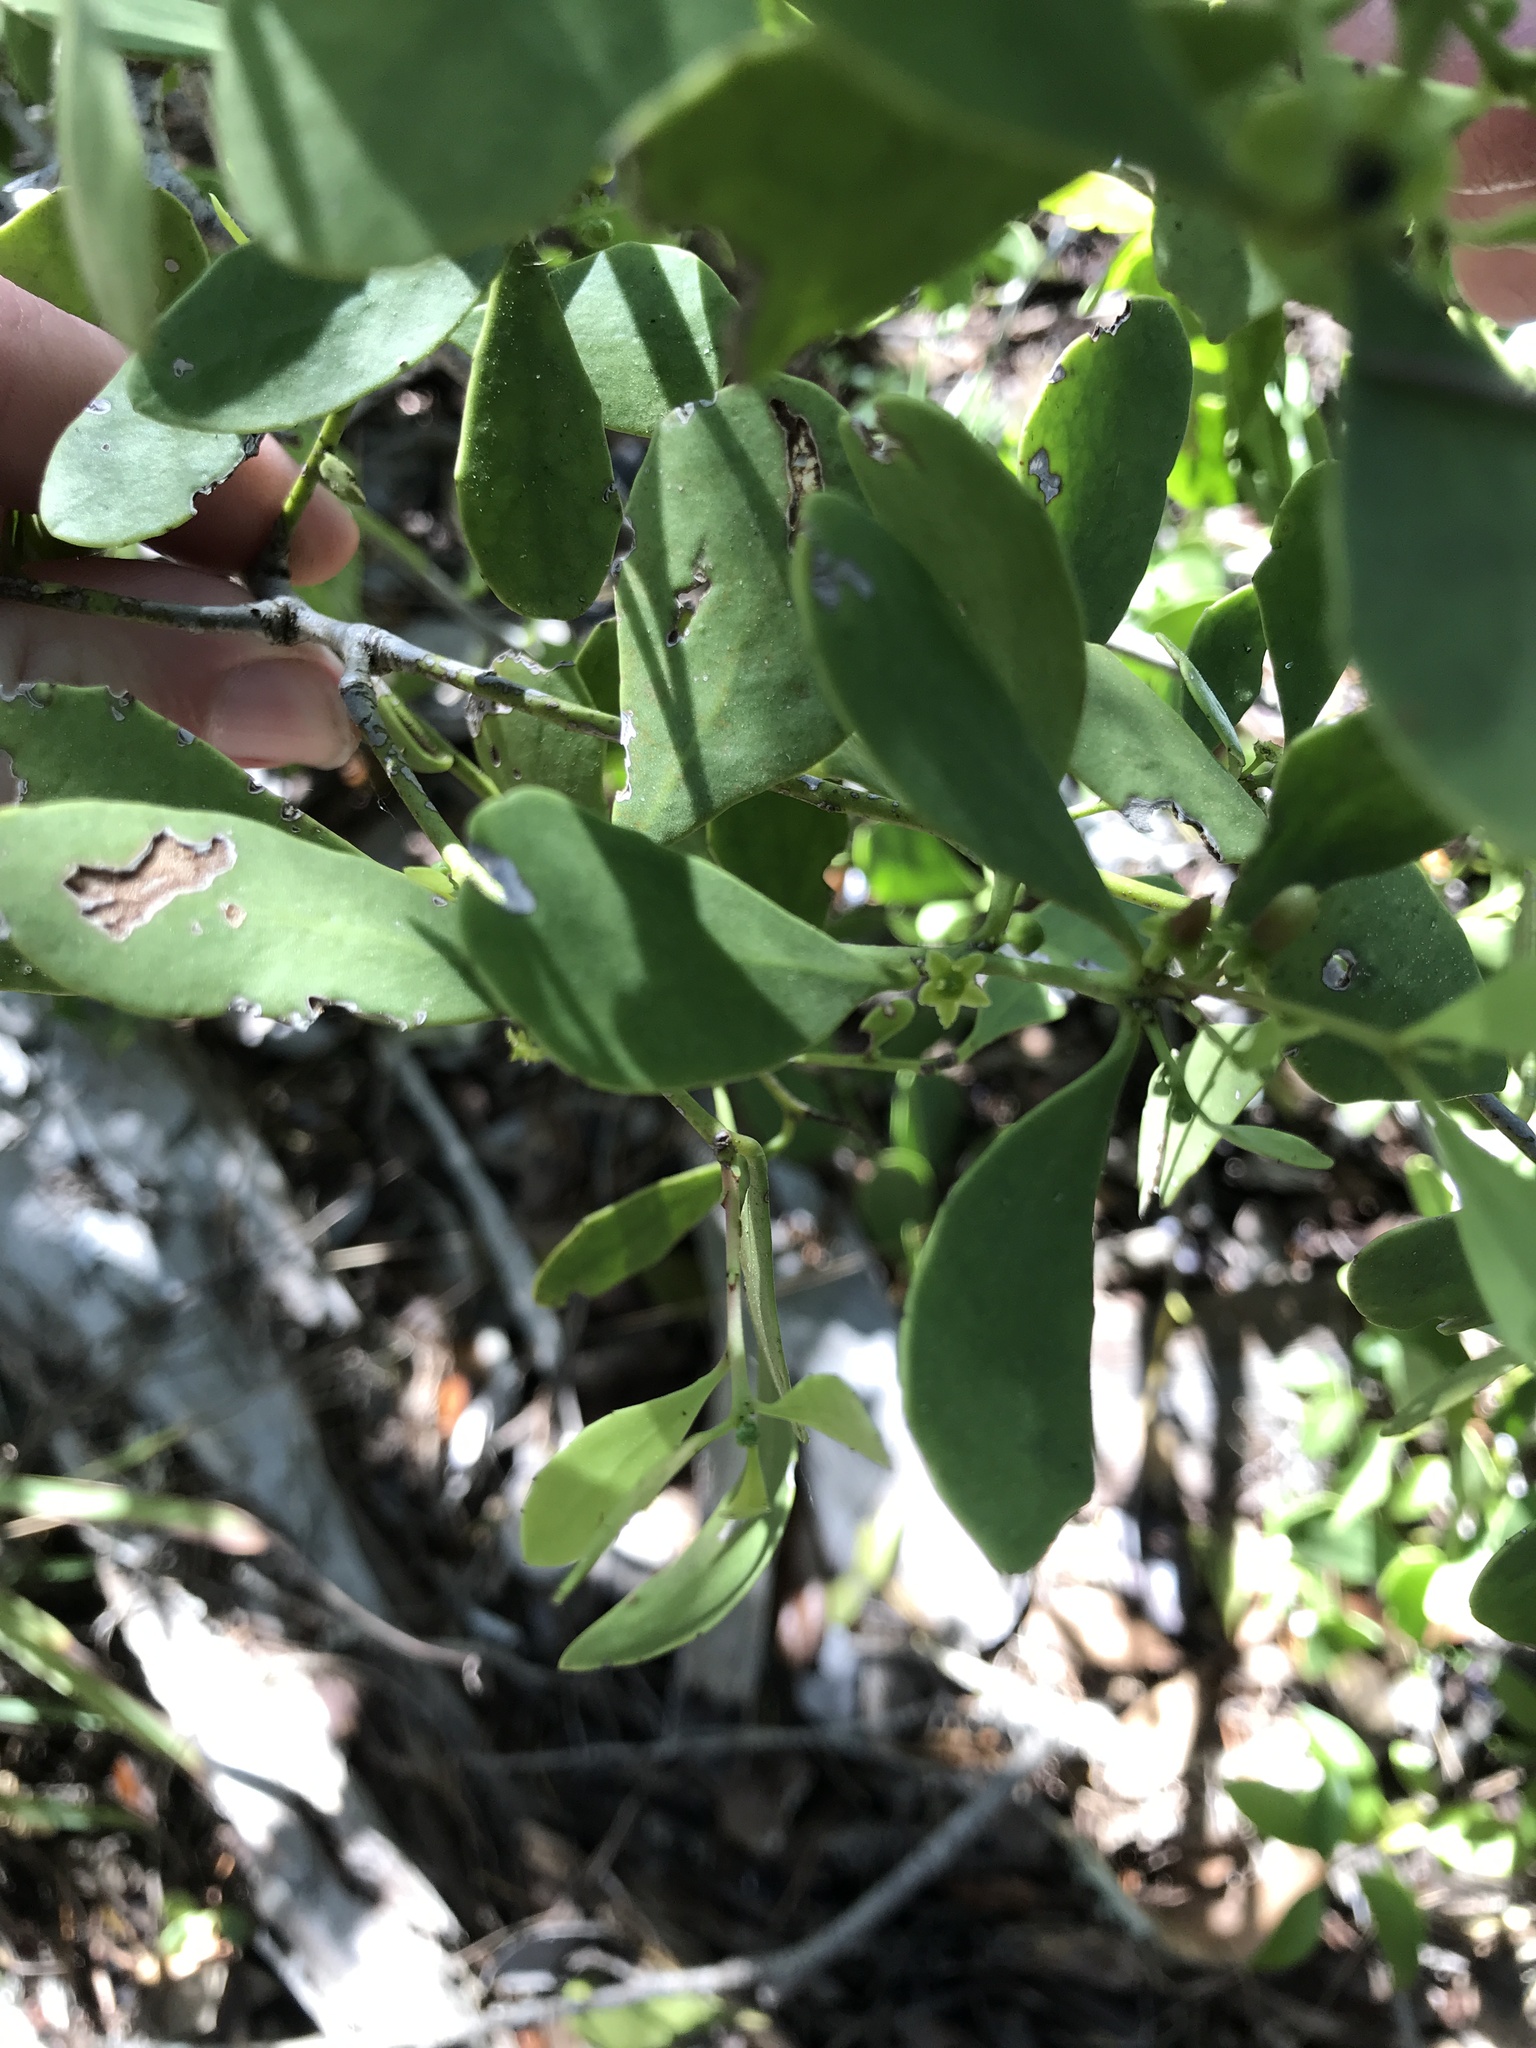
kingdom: Plantae
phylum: Tracheophyta
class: Magnoliopsida
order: Celastrales
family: Celastraceae
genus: Tricerma
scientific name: Tricerma phyllanthoides
